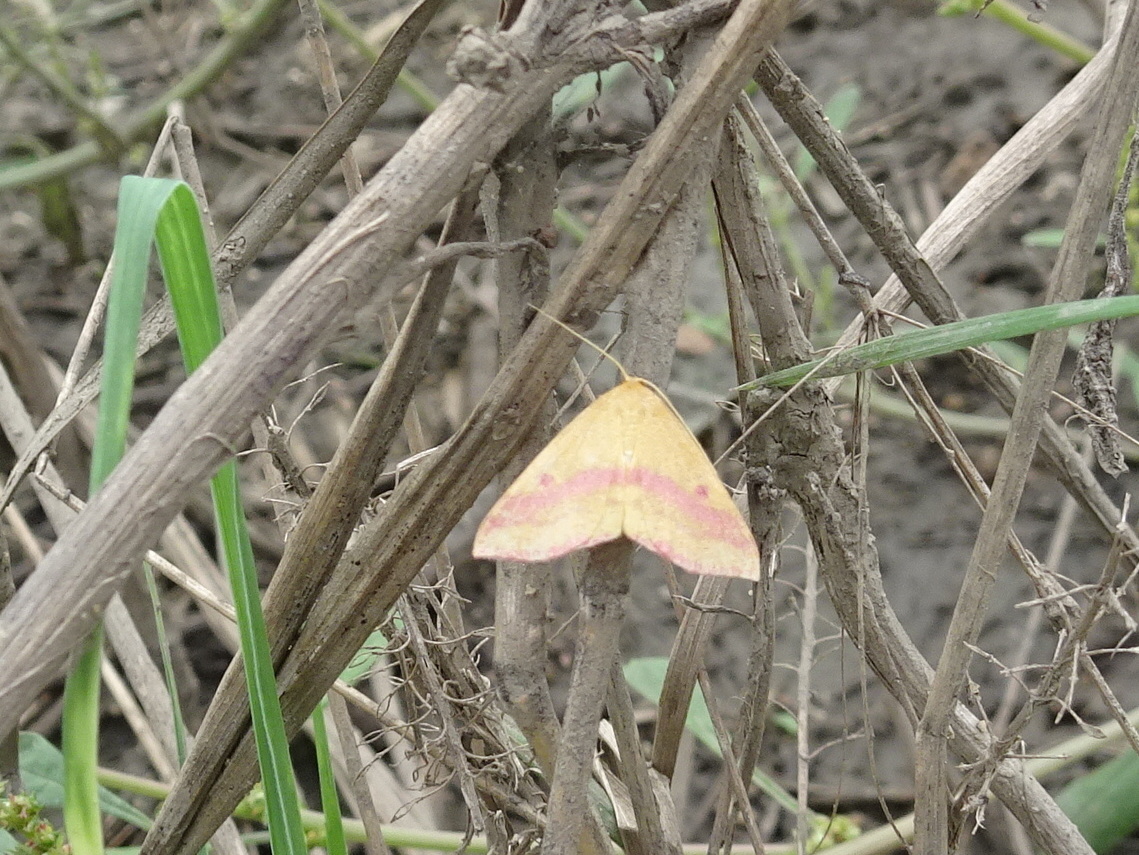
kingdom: Animalia
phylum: Arthropoda
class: Insecta
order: Lepidoptera
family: Geometridae
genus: Haematopis
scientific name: Haematopis grataria
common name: Chickweed geometer
